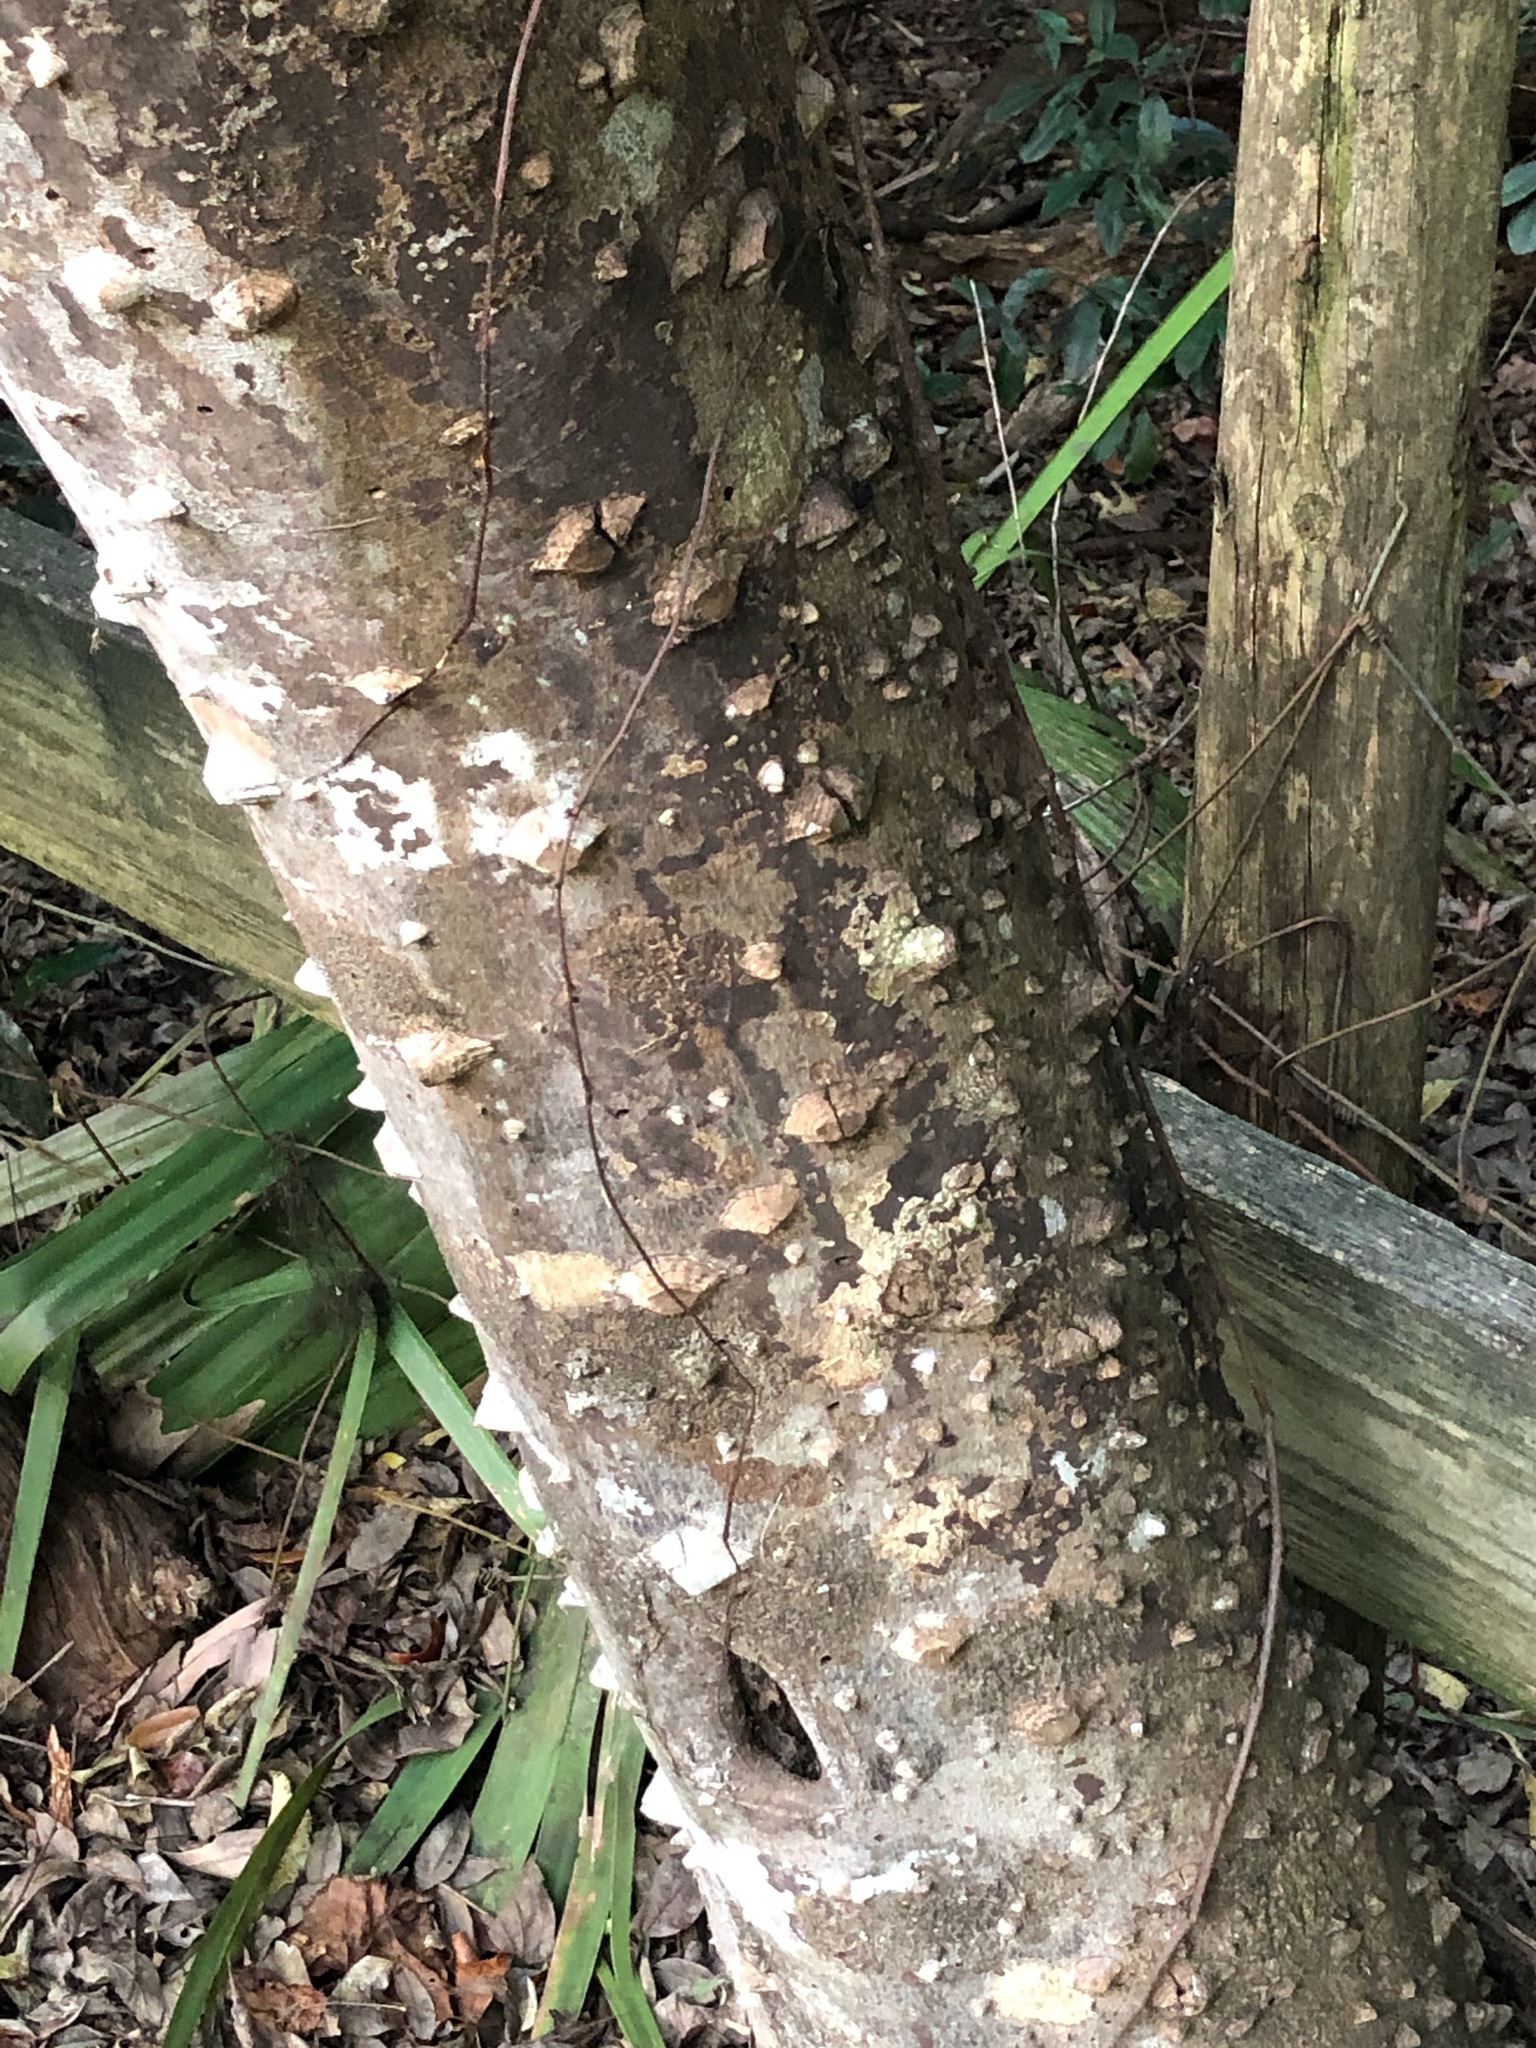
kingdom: Plantae
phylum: Tracheophyta
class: Magnoliopsida
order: Sapindales
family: Rutaceae
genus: Zanthoxylum
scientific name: Zanthoxylum clava-herculis
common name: Hercules'-club
